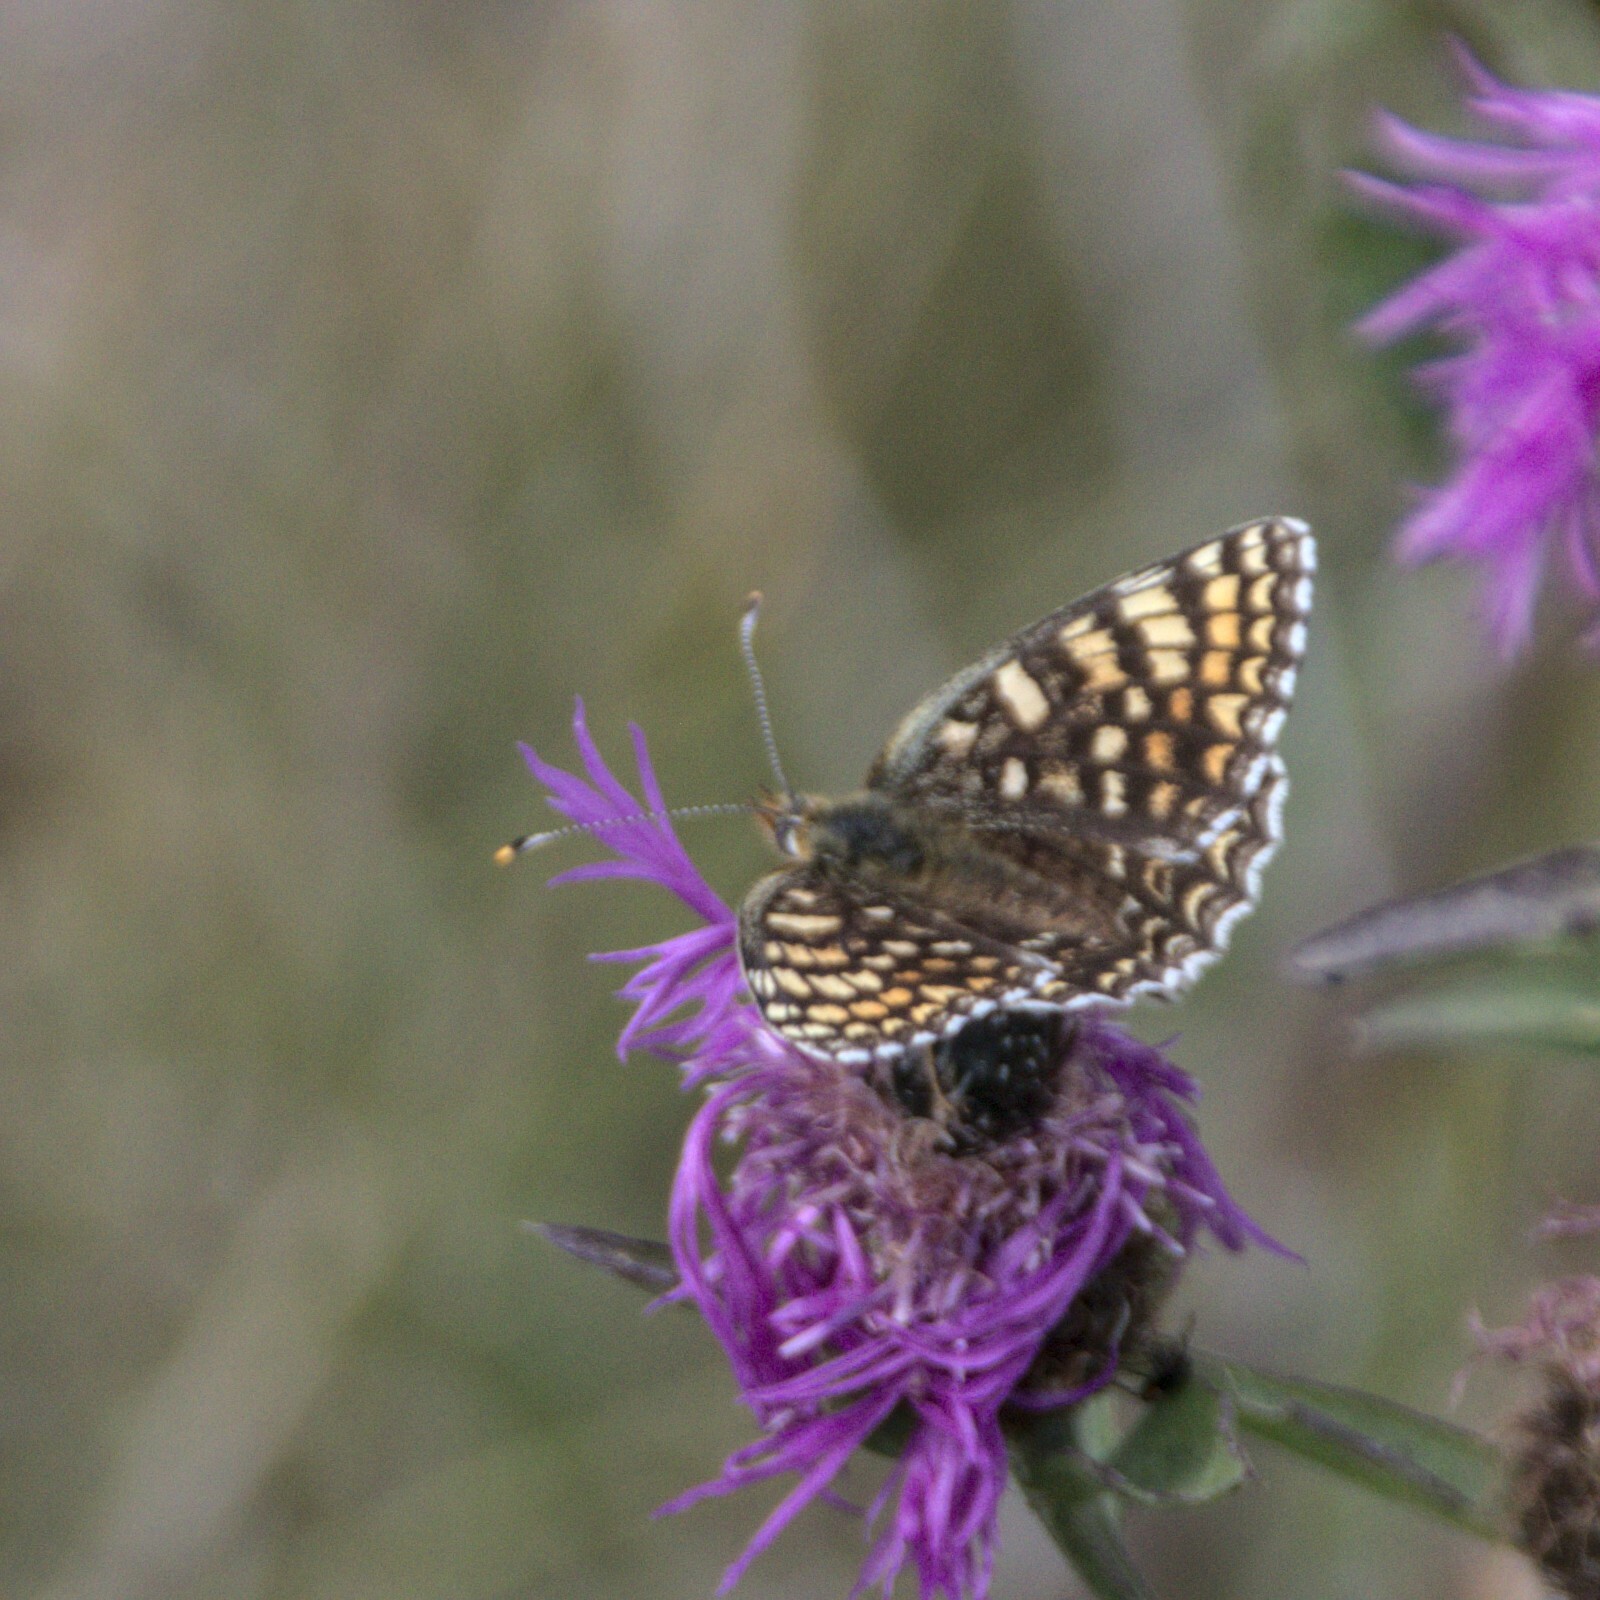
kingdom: Animalia
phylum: Arthropoda
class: Insecta
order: Lepidoptera
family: Nymphalidae
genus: Melitaea
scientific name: Melitaea phoebe
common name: Knapweed fritillary
